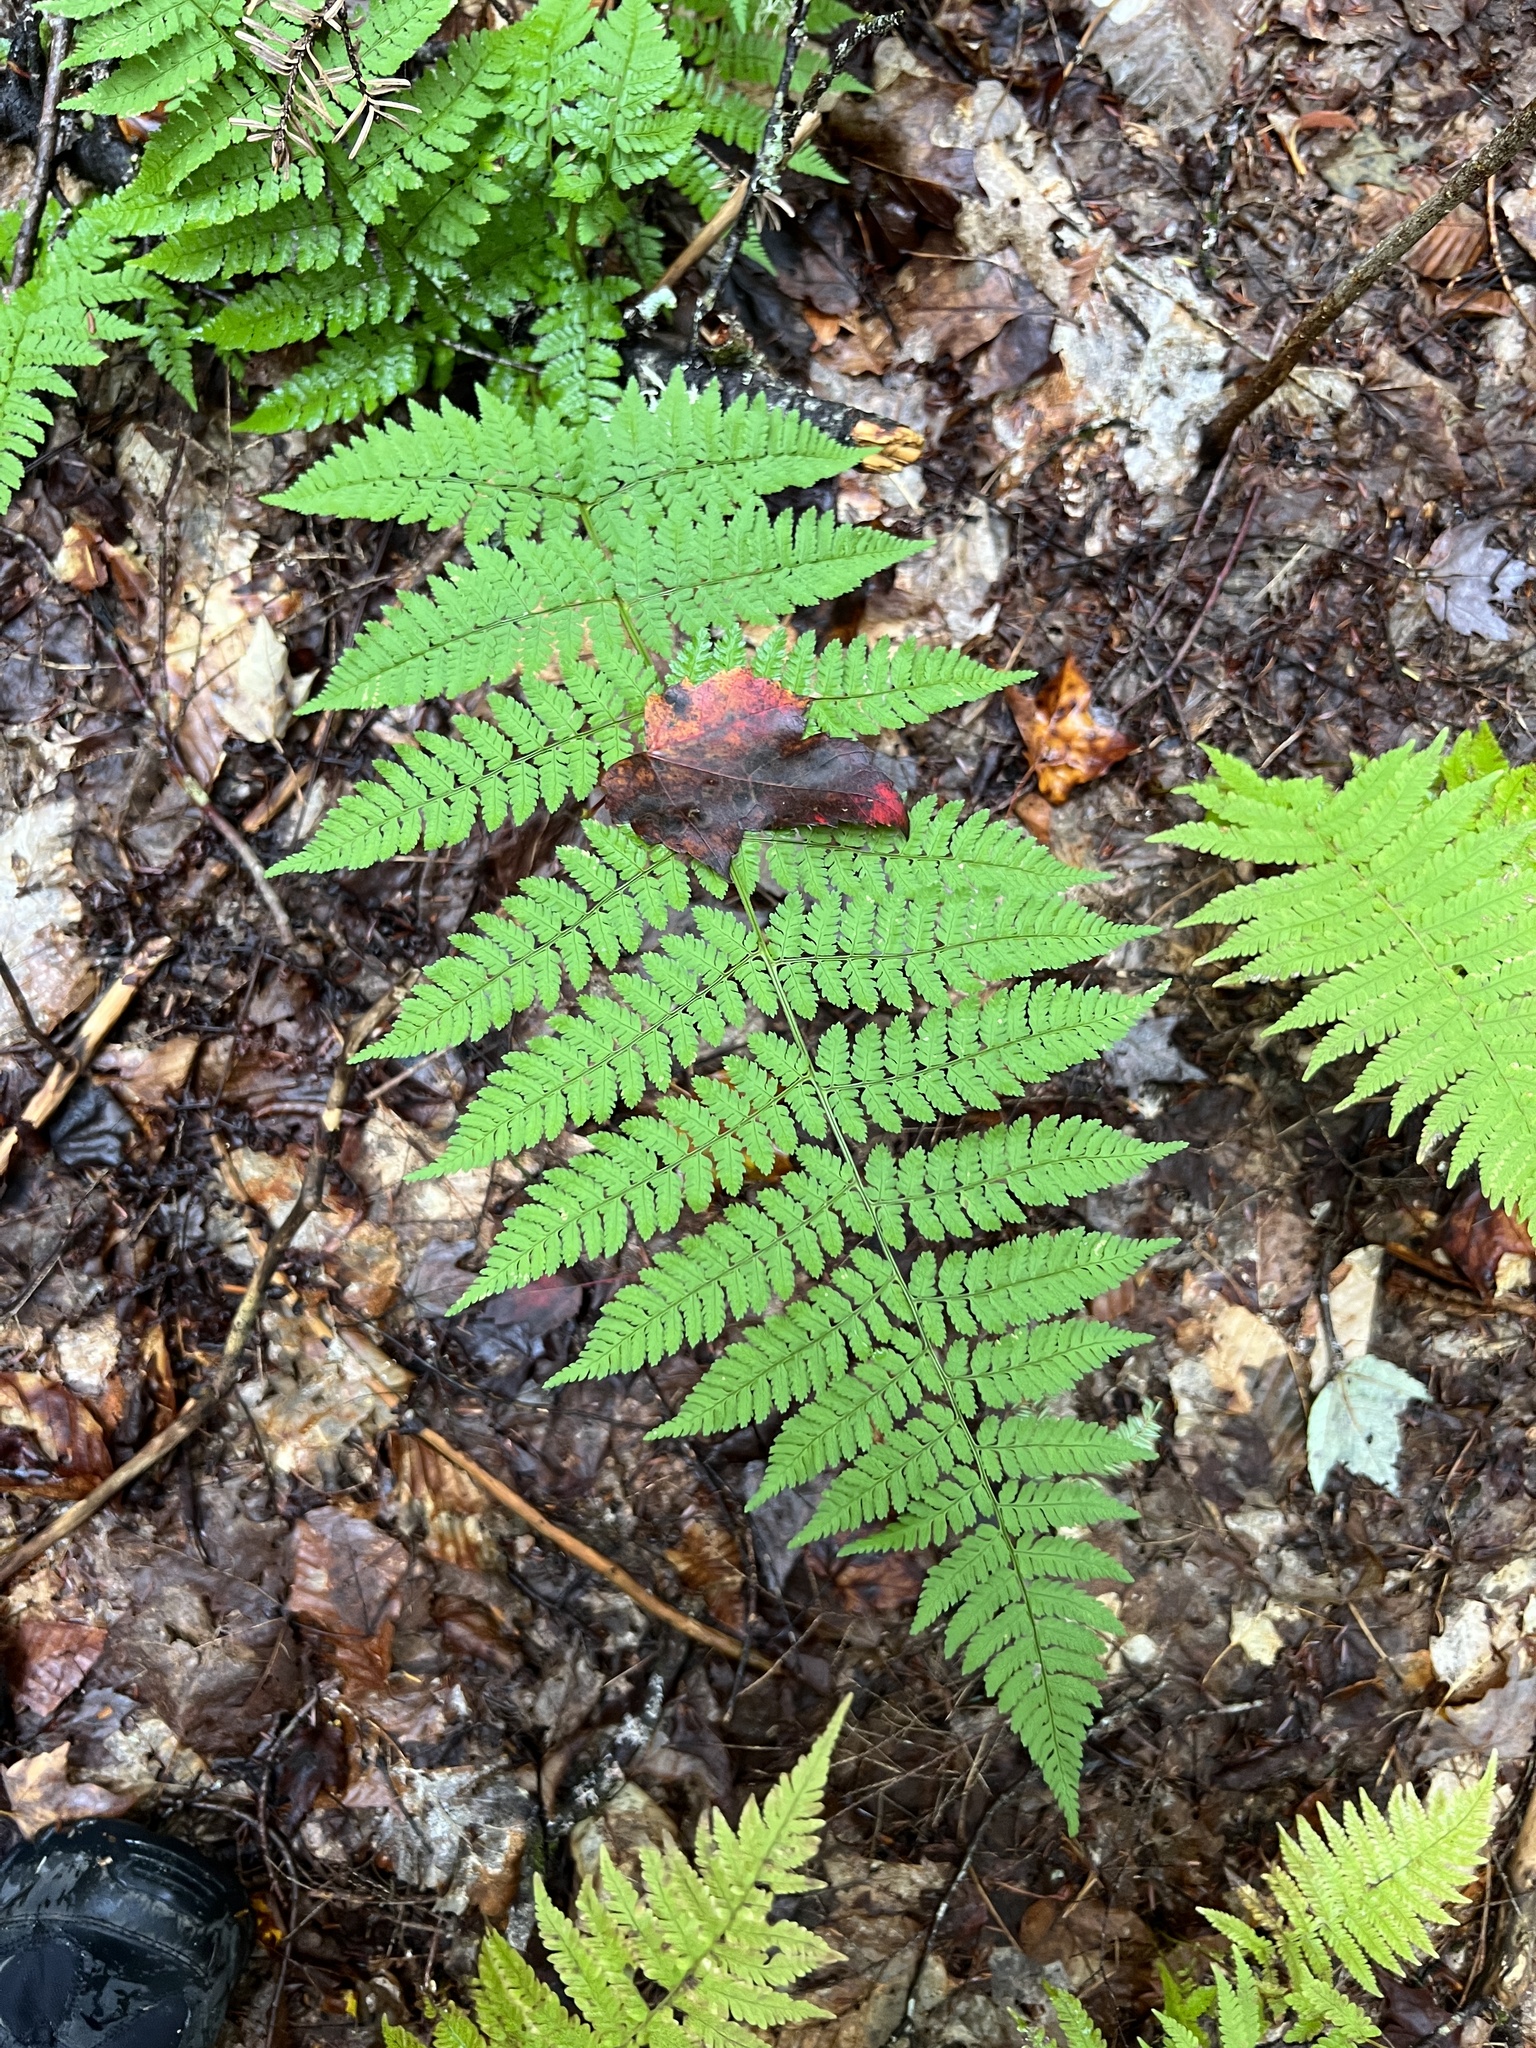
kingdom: Plantae
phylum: Tracheophyta
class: Polypodiopsida
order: Polypodiales
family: Dryopteridaceae
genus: Dryopteris
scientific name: Dryopteris intermedia
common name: Evergreen wood fern
